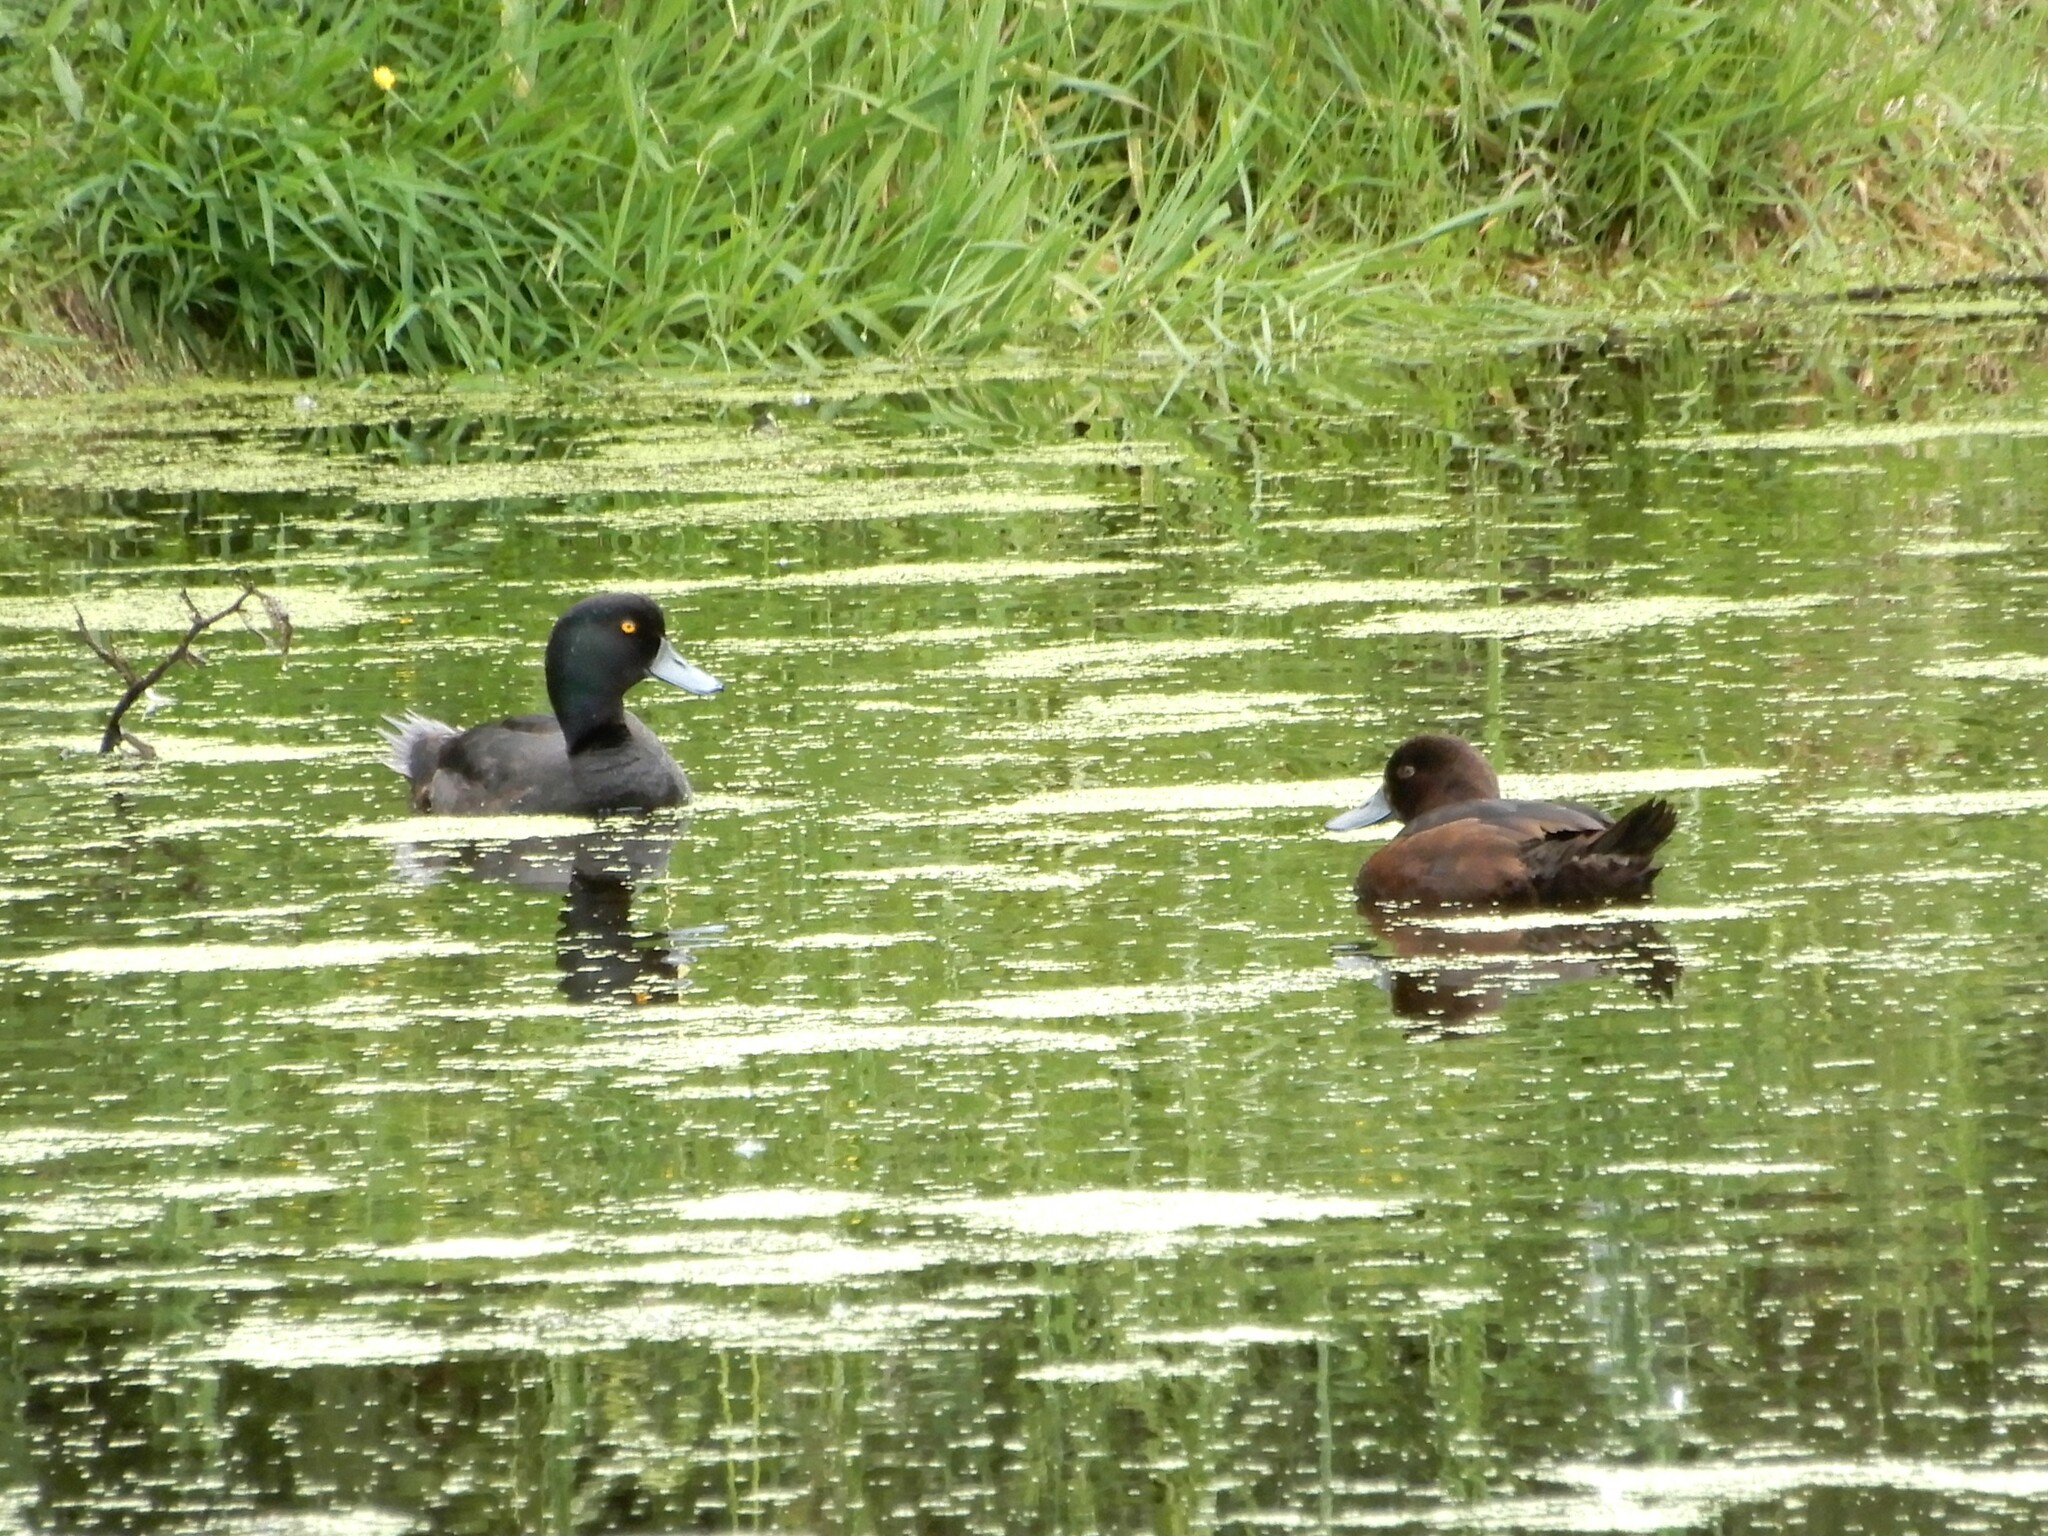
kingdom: Animalia
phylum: Chordata
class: Aves
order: Anseriformes
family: Anatidae
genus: Aythya
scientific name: Aythya novaeseelandiae
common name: New zealand scaup
